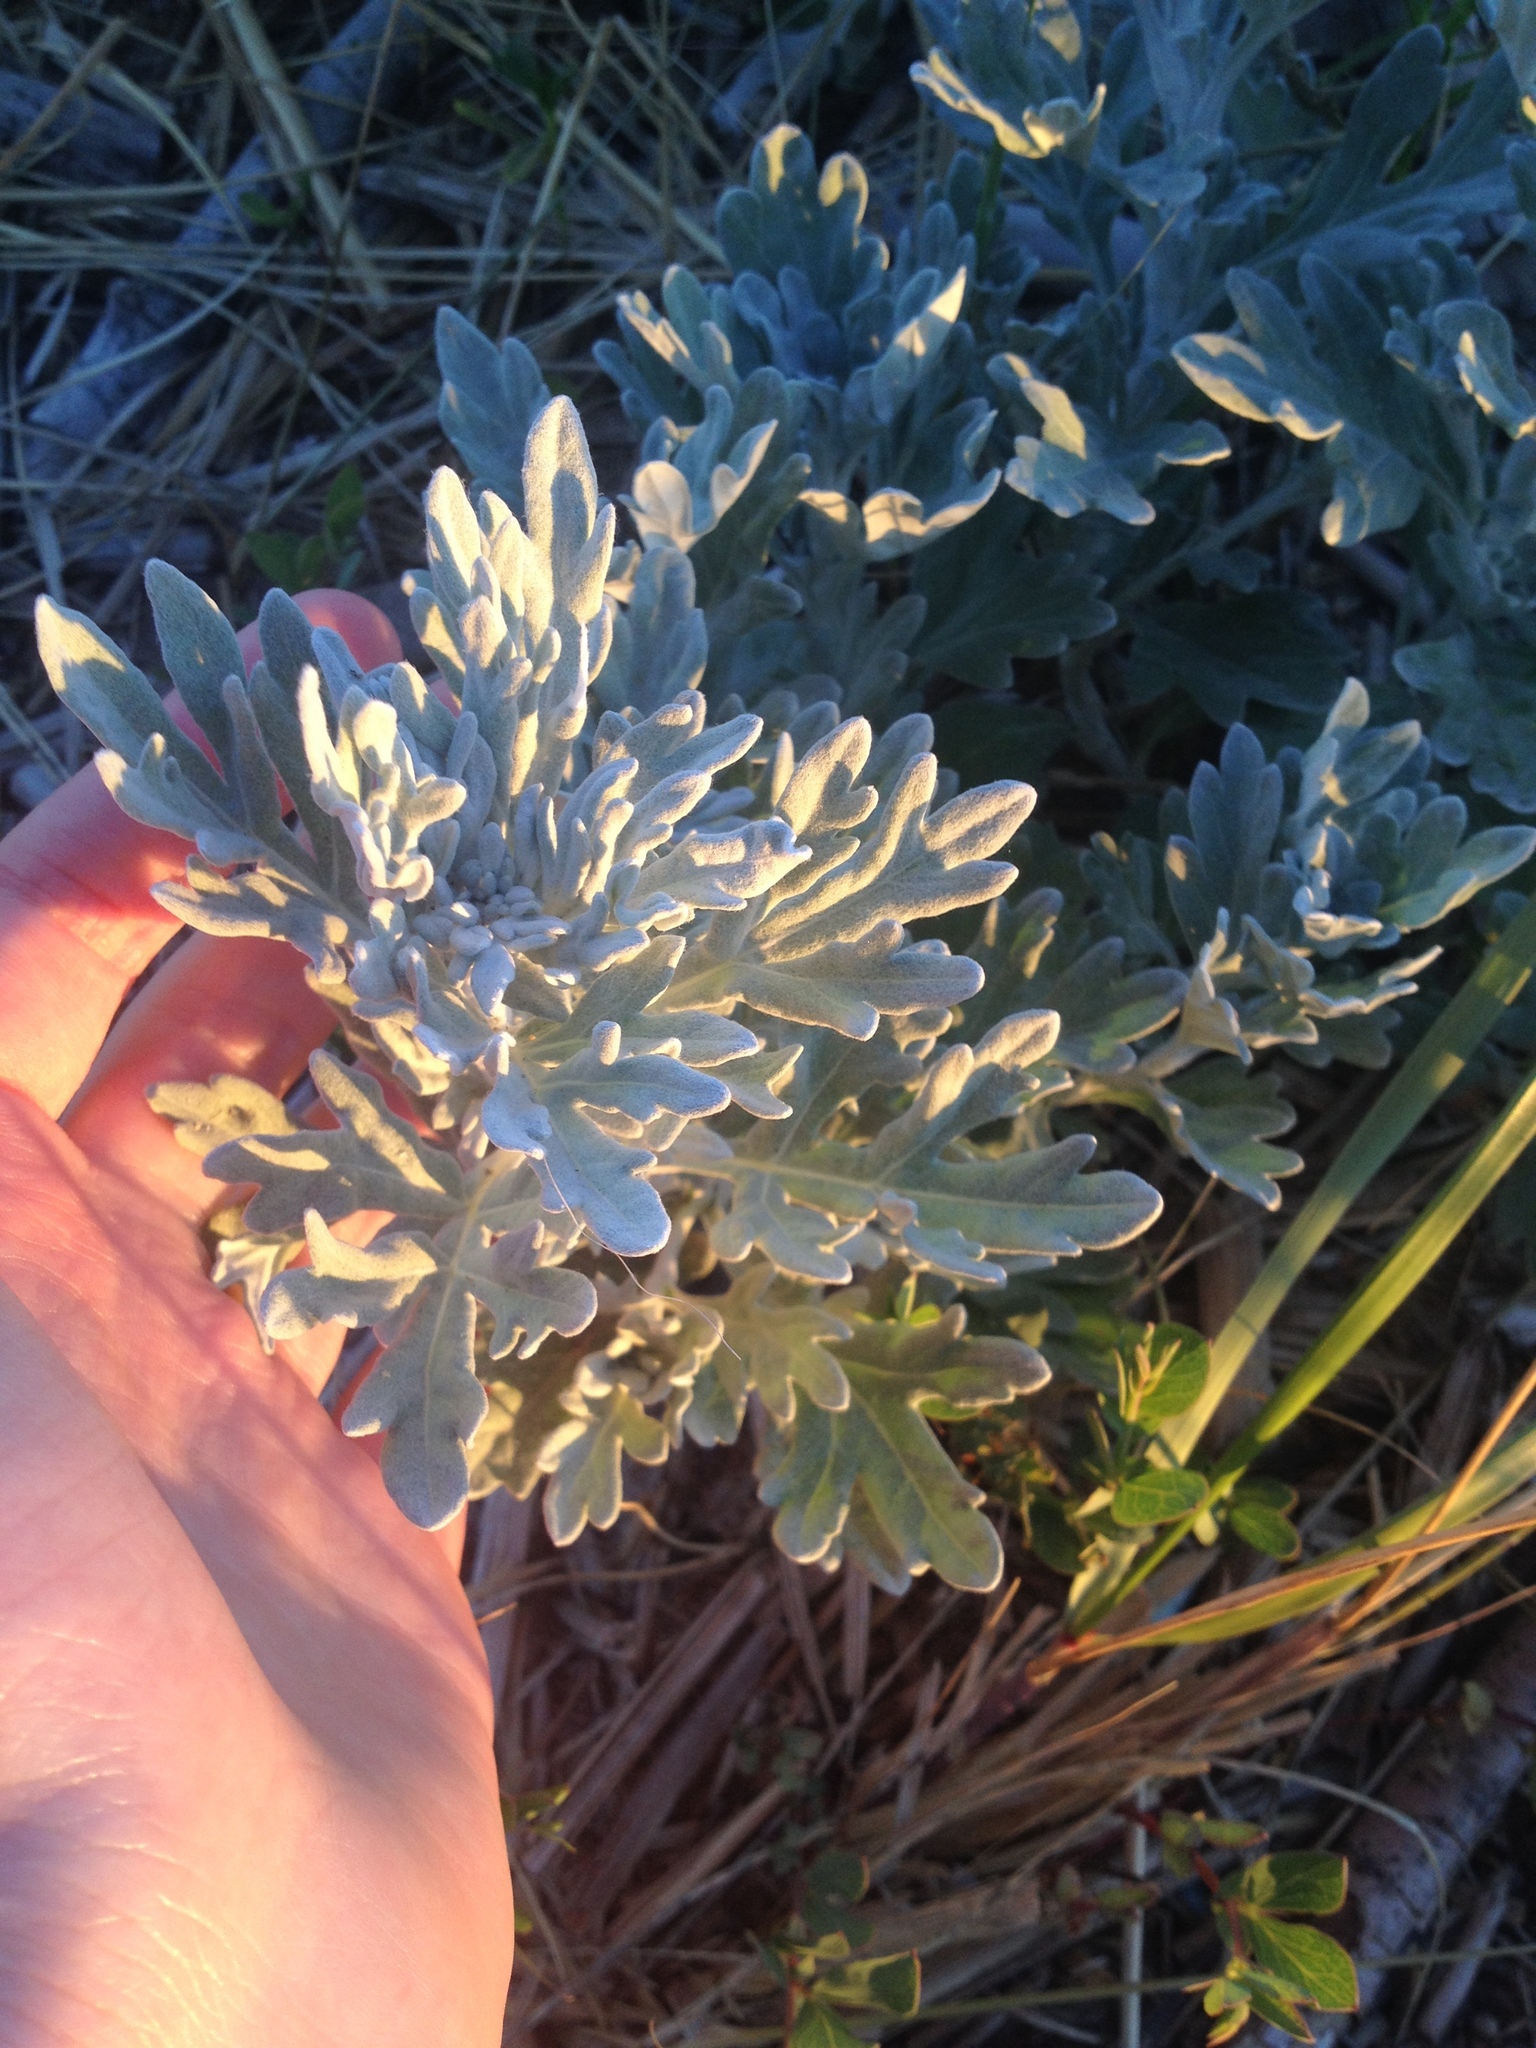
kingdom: Plantae
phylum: Tracheophyta
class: Magnoliopsida
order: Asterales
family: Asteraceae
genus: Artemisia
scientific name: Artemisia stelleriana
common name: Beach wormwood
